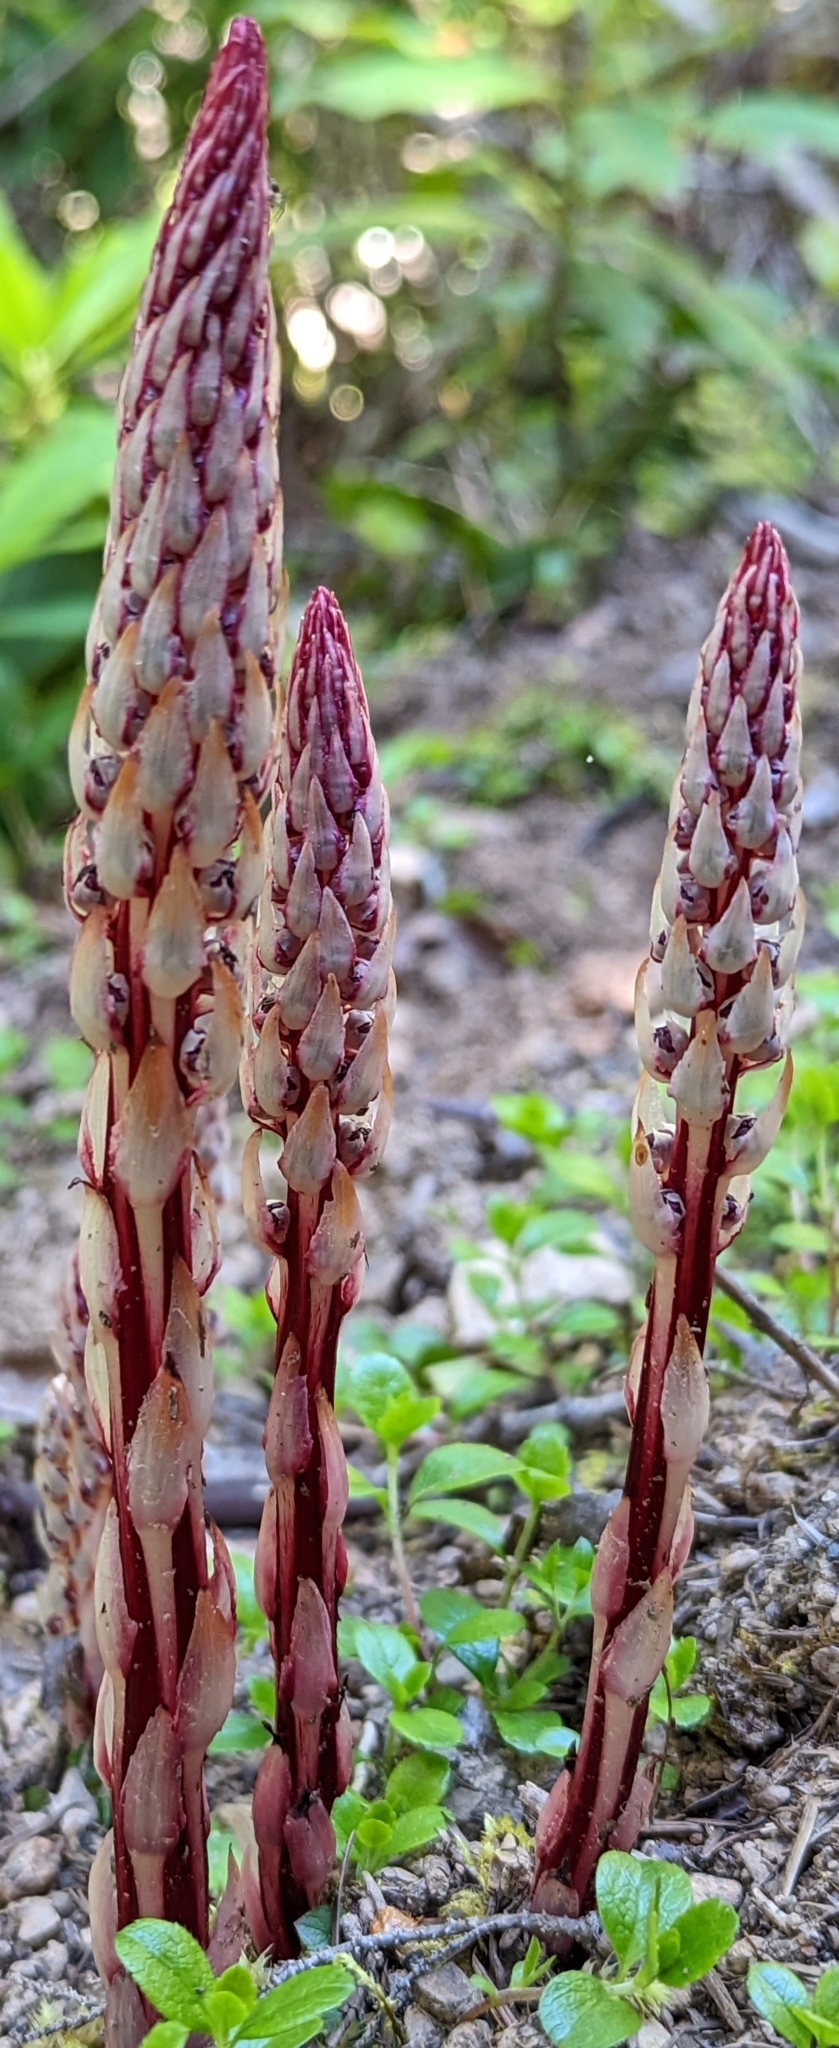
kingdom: Plantae
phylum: Tracheophyta
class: Magnoliopsida
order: Ericales
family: Ericaceae
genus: Allotropa
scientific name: Allotropa virgata
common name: Candy-striped allotropa
